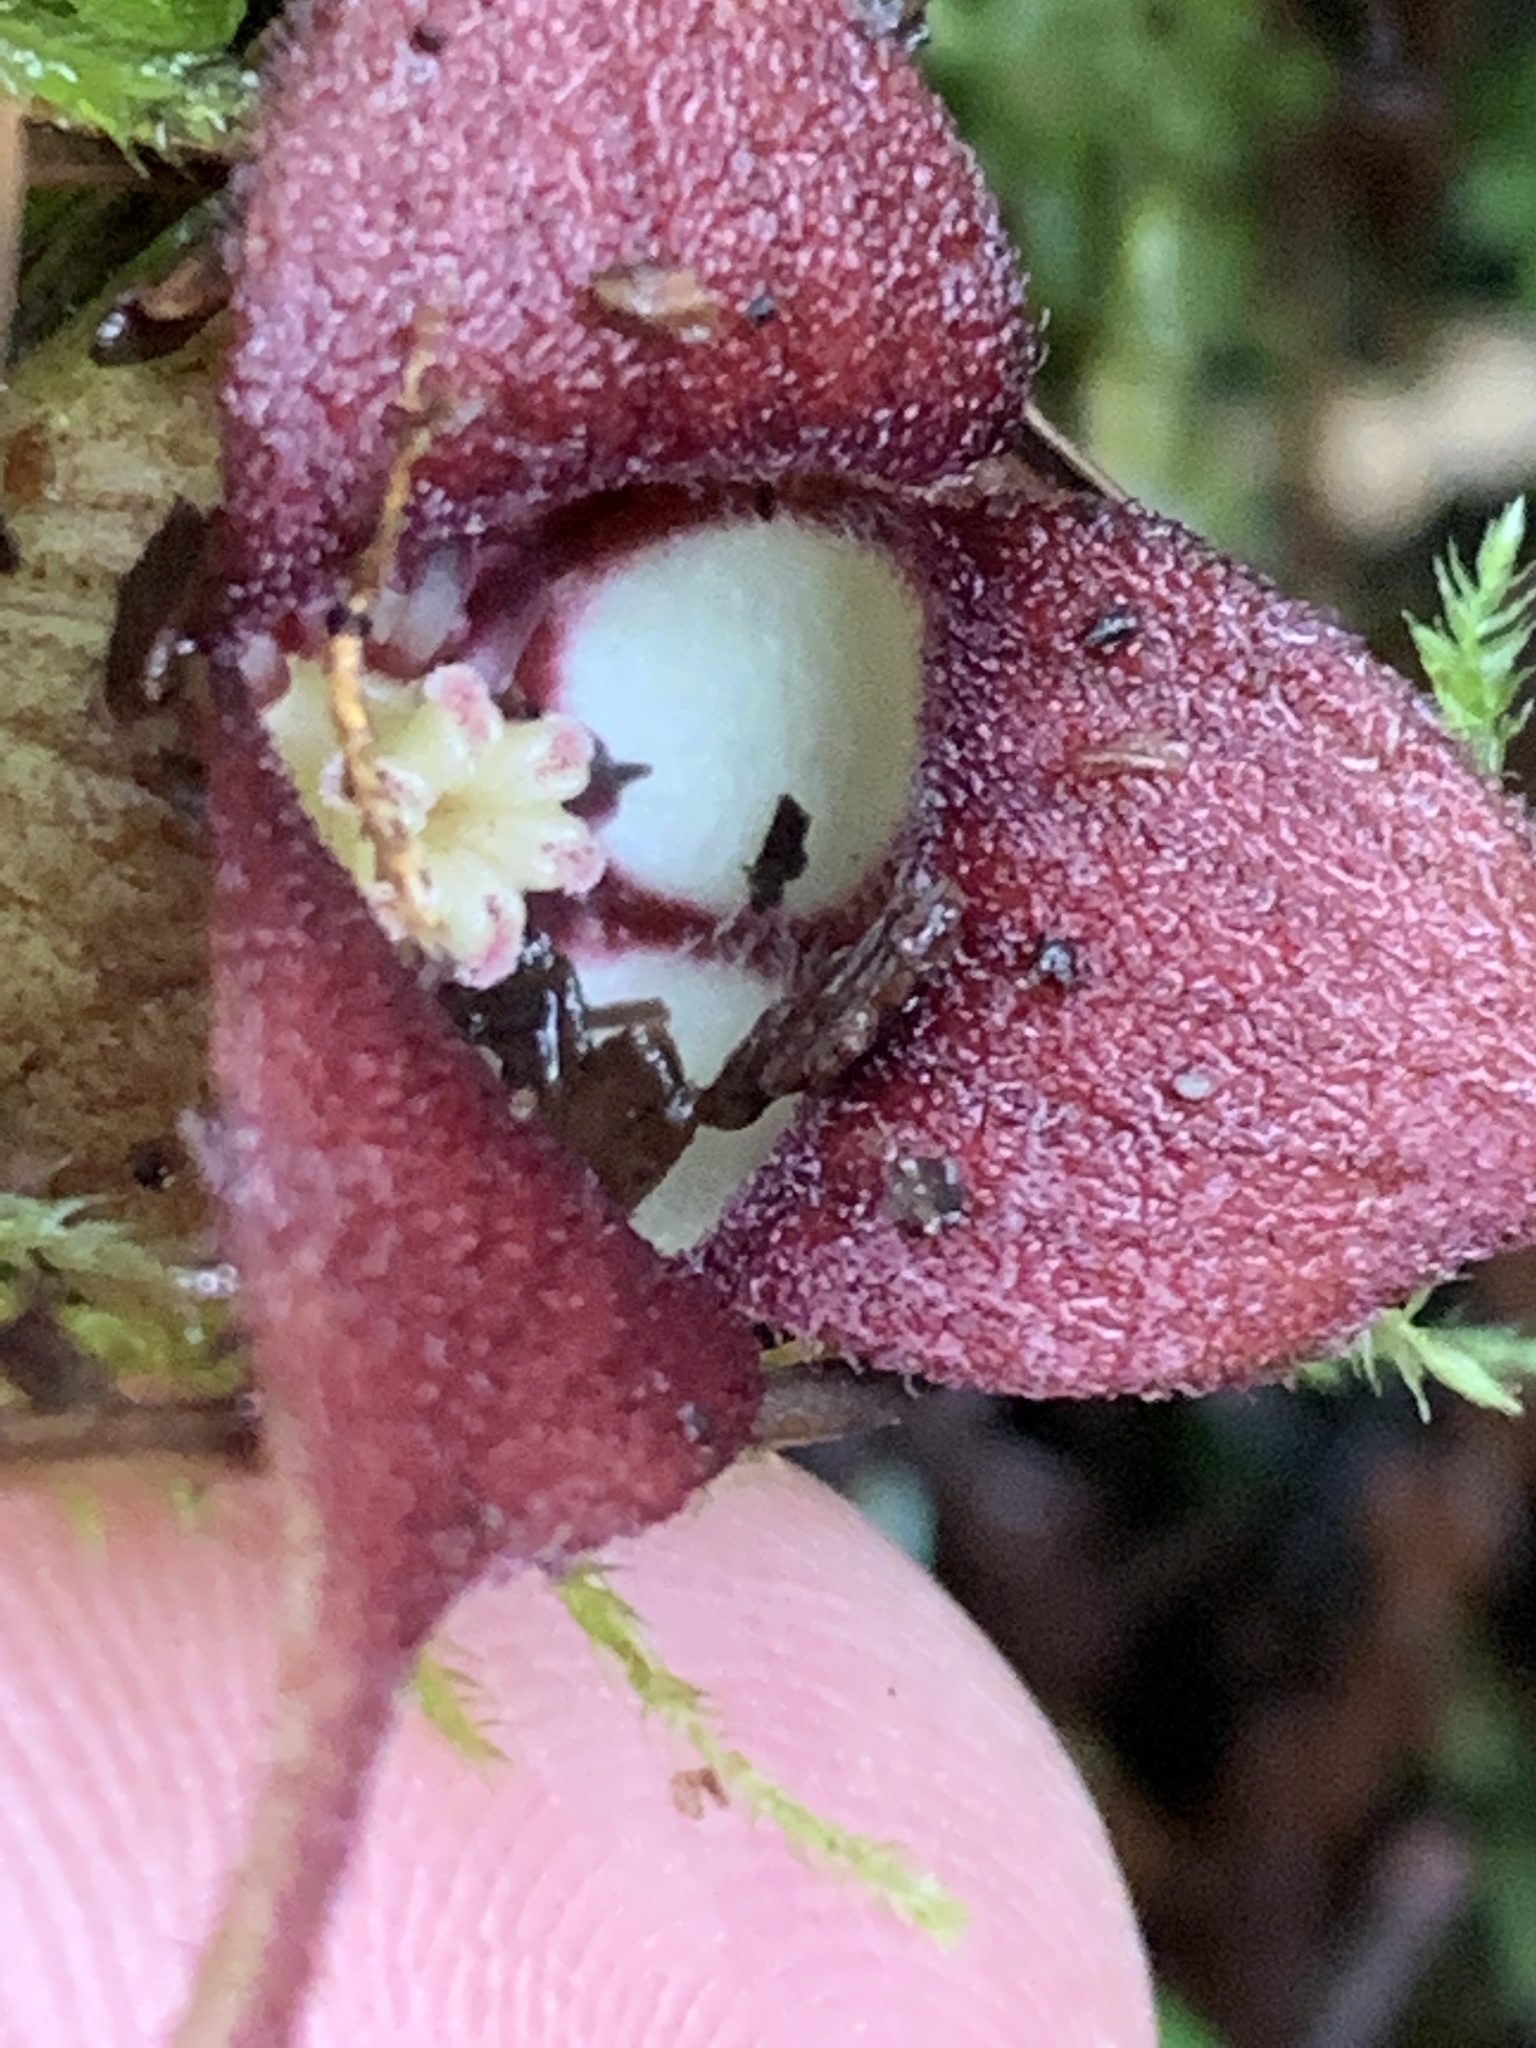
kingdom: Plantae
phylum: Tracheophyta
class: Magnoliopsida
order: Piperales
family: Aristolochiaceae
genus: Asarum
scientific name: Asarum caudatum
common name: Wild ginger
